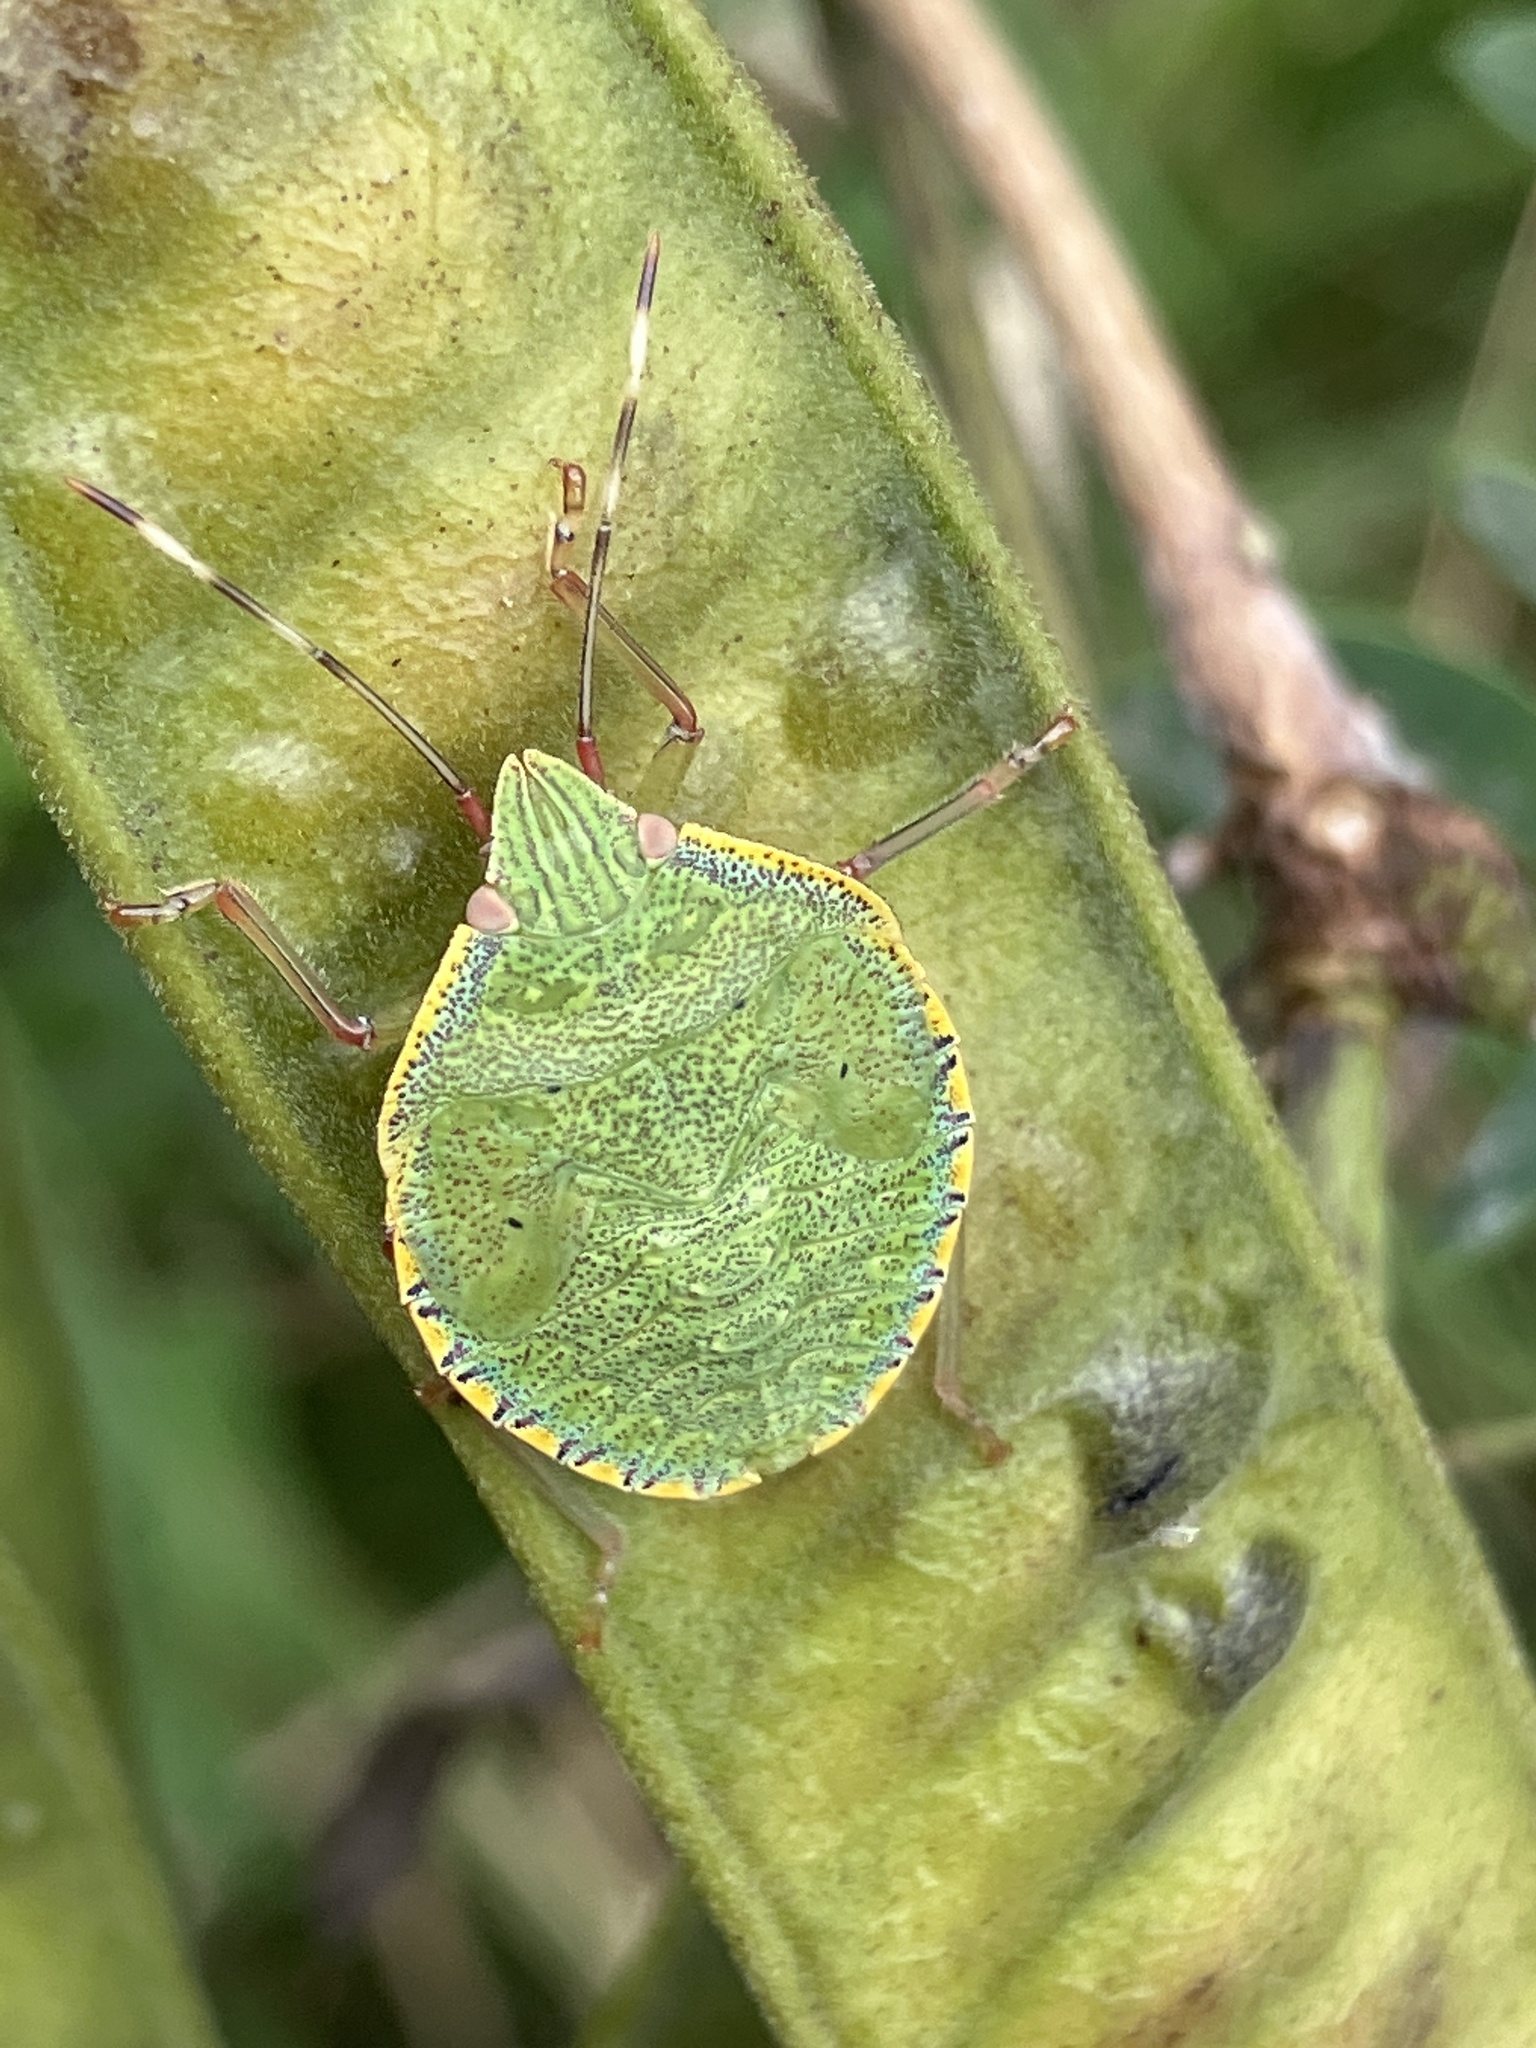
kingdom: Animalia
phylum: Arthropoda
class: Insecta
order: Hemiptera
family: Pentatomidae
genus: Loxa
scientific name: Loxa viridis
